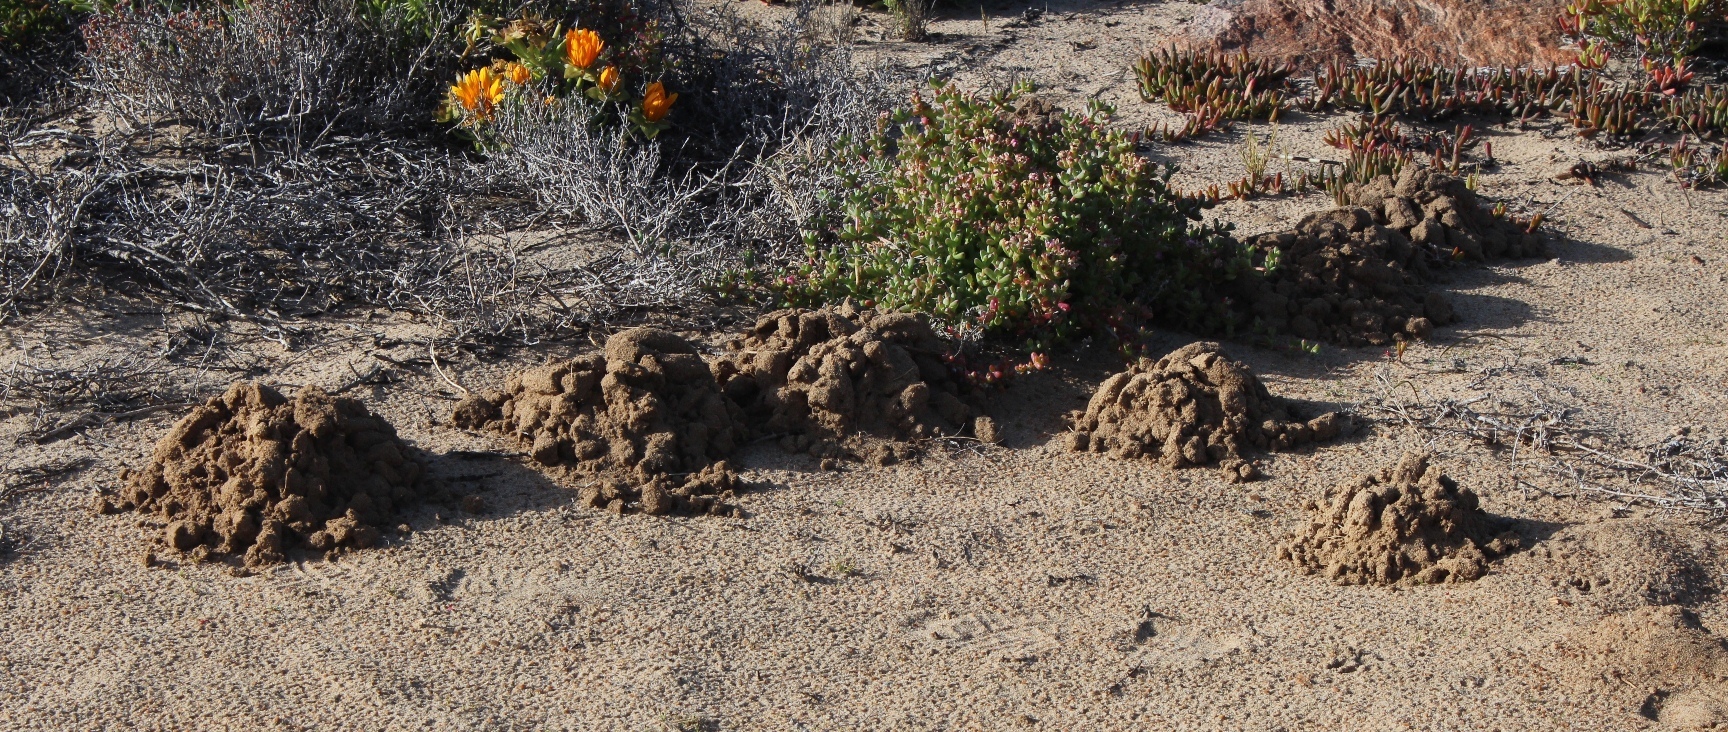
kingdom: Animalia
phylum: Chordata
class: Mammalia
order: Rodentia
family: Bathyergidae
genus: Bathyergus
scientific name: Bathyergus janetta
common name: Namaqua dune mole-rat
